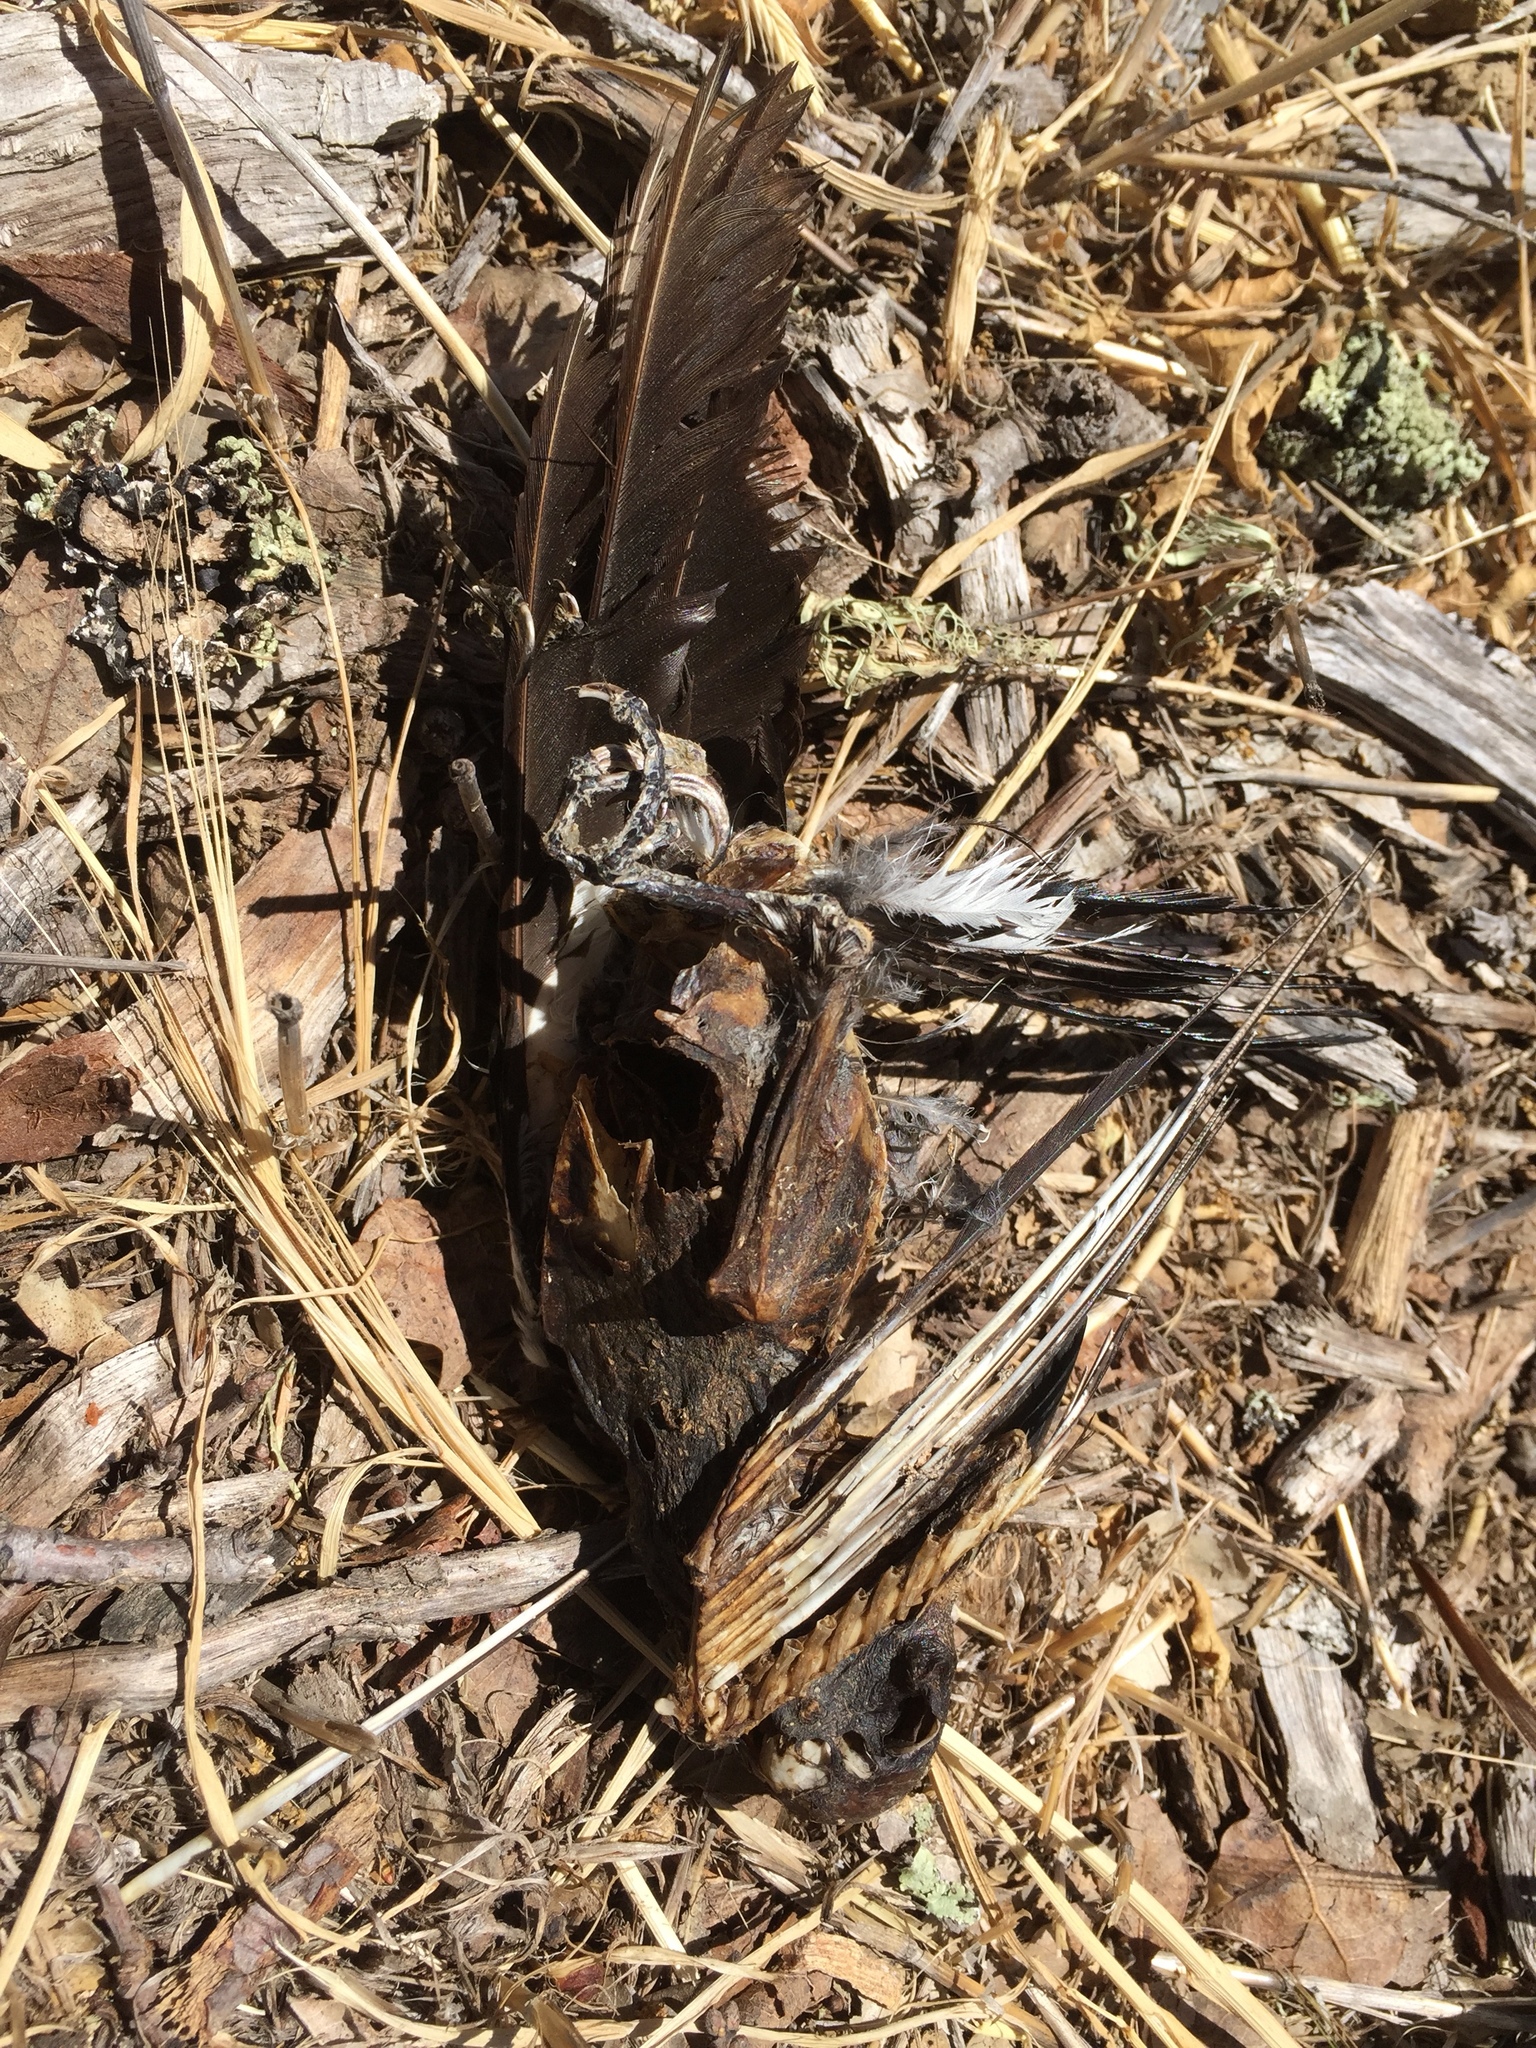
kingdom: Animalia
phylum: Chordata
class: Aves
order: Piciformes
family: Picidae
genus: Melanerpes
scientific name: Melanerpes formicivorus
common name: Acorn woodpecker
